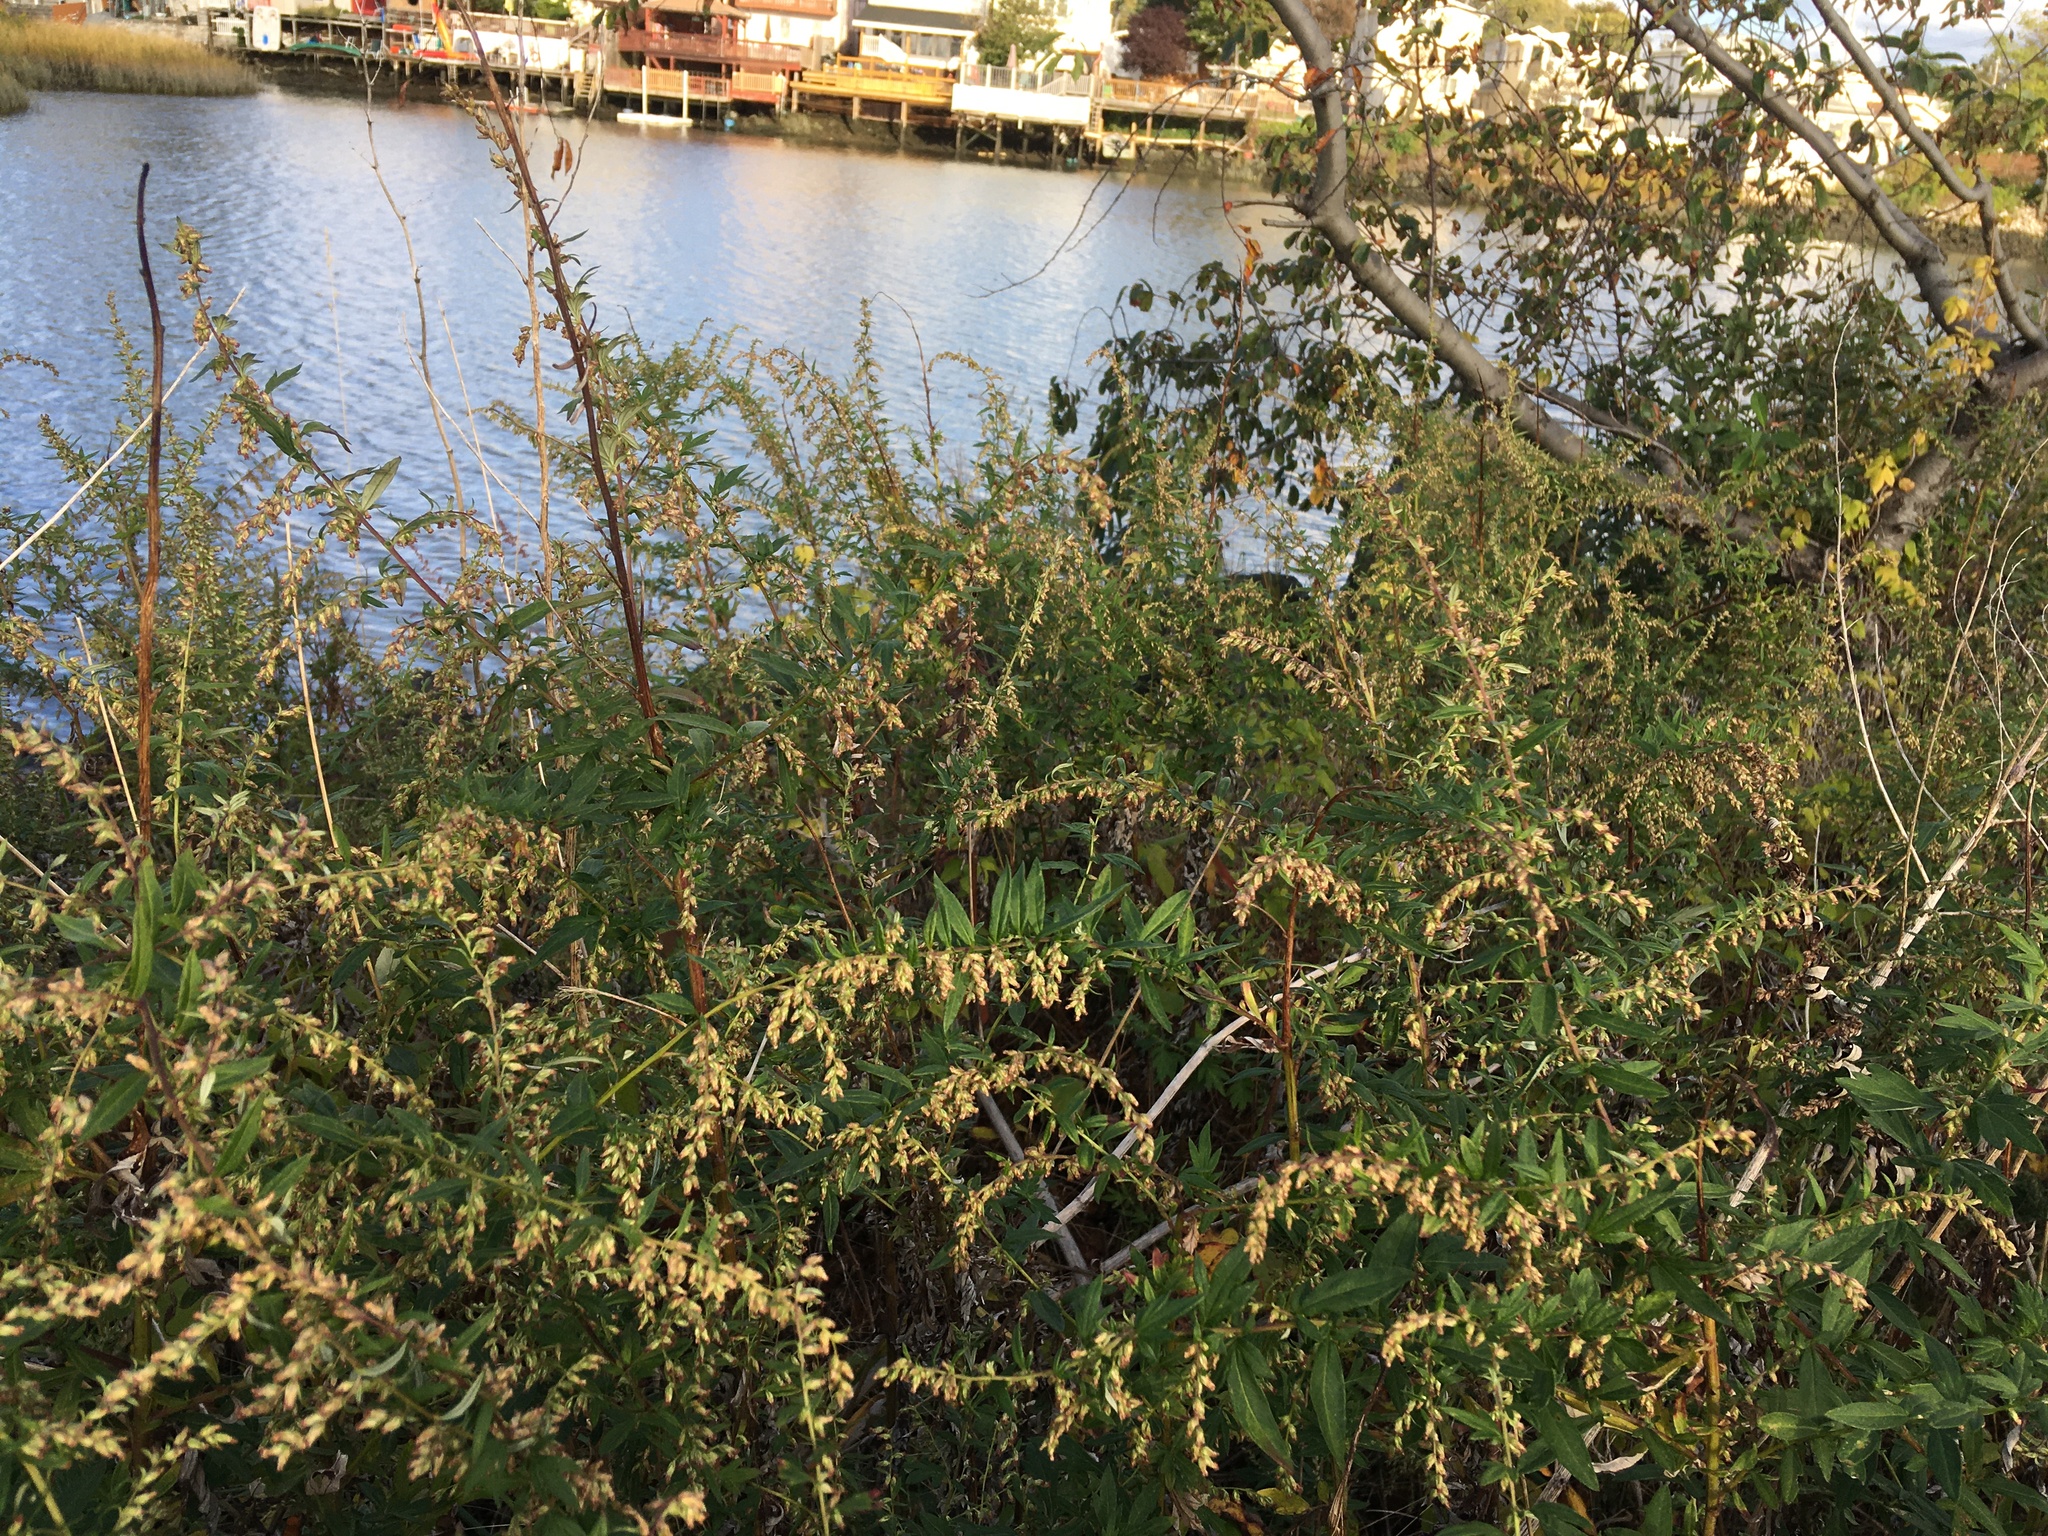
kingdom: Plantae
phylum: Tracheophyta
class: Magnoliopsida
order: Asterales
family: Asteraceae
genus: Artemisia
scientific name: Artemisia vulgaris
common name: Mugwort
